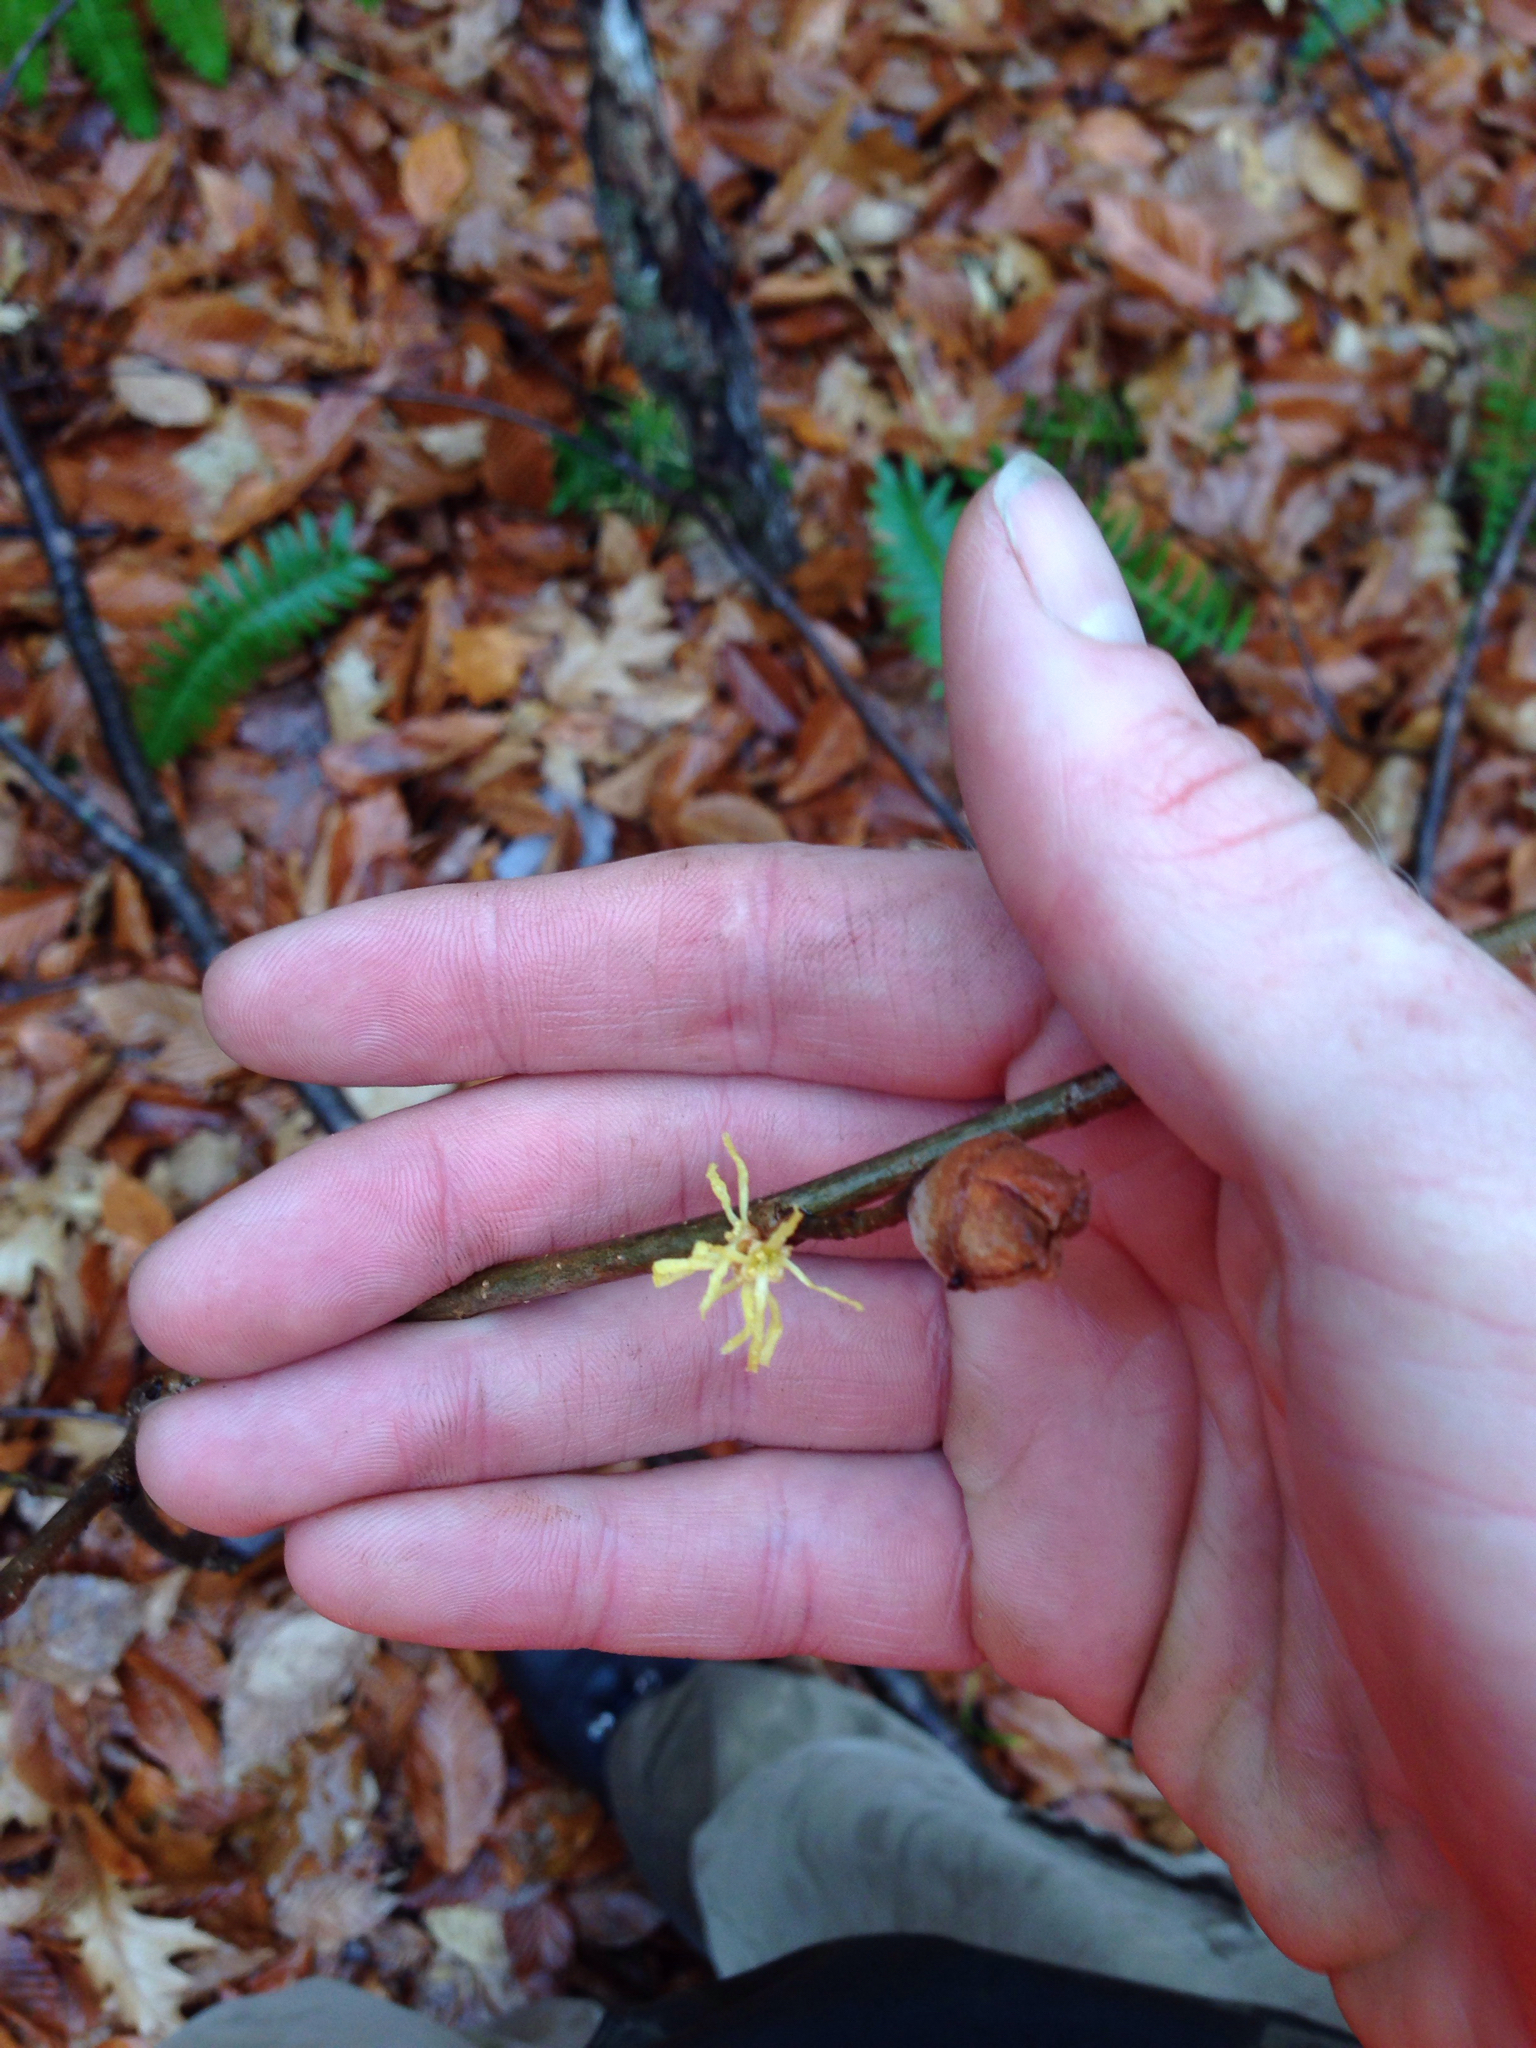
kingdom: Plantae
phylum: Tracheophyta
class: Magnoliopsida
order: Saxifragales
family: Hamamelidaceae
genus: Hamamelis
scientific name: Hamamelis virginiana
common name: Witch-hazel
